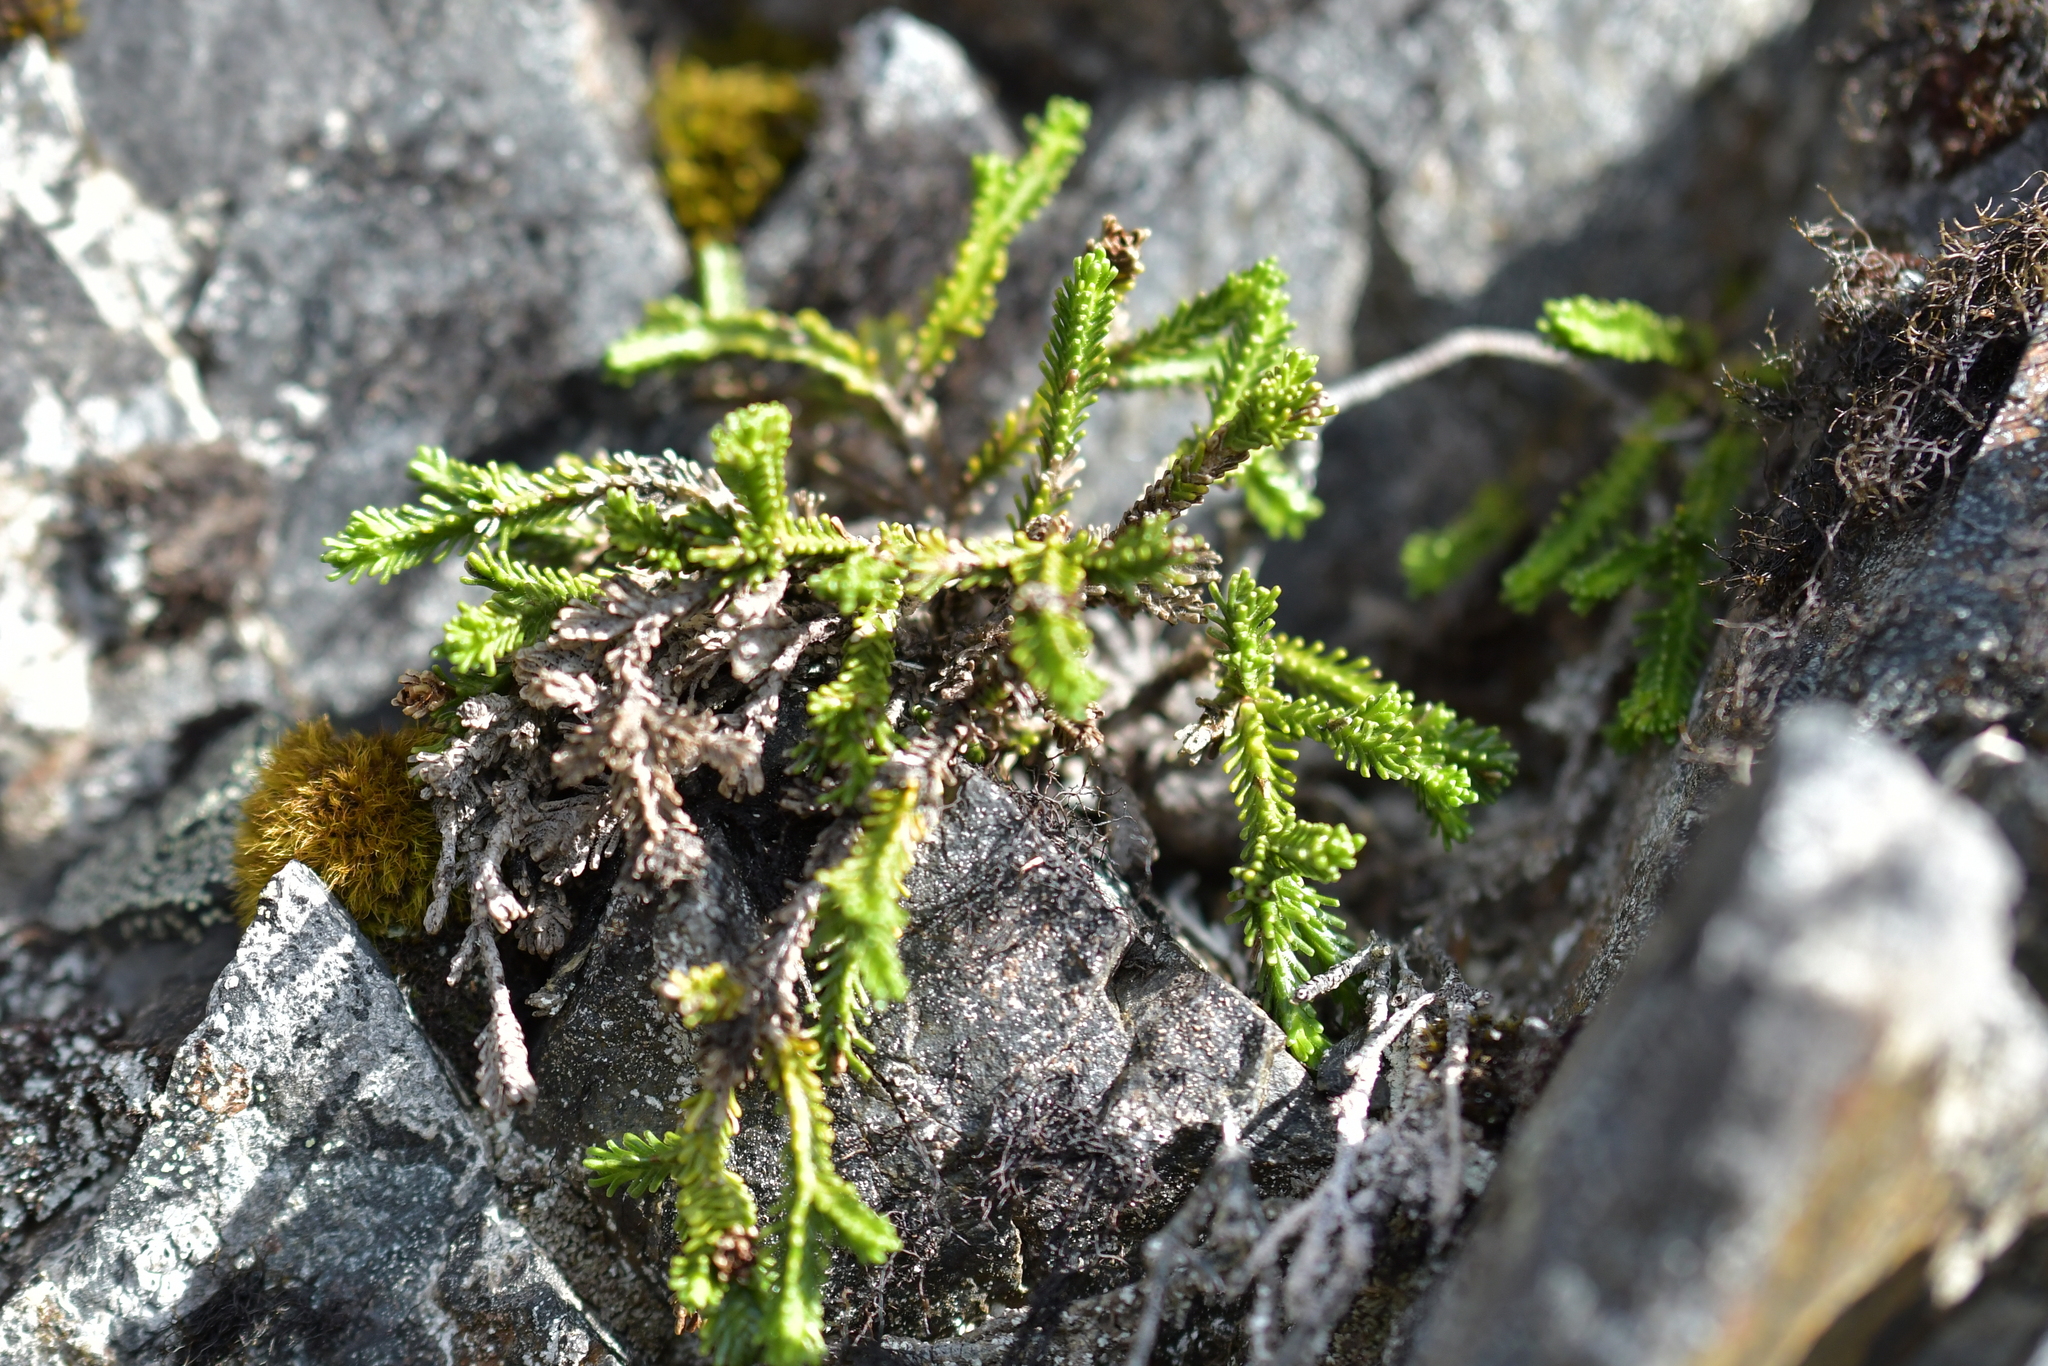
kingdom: Plantae
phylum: Tracheophyta
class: Magnoliopsida
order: Lamiales
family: Plantaginaceae
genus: Veronica
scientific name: Veronica hookeri
